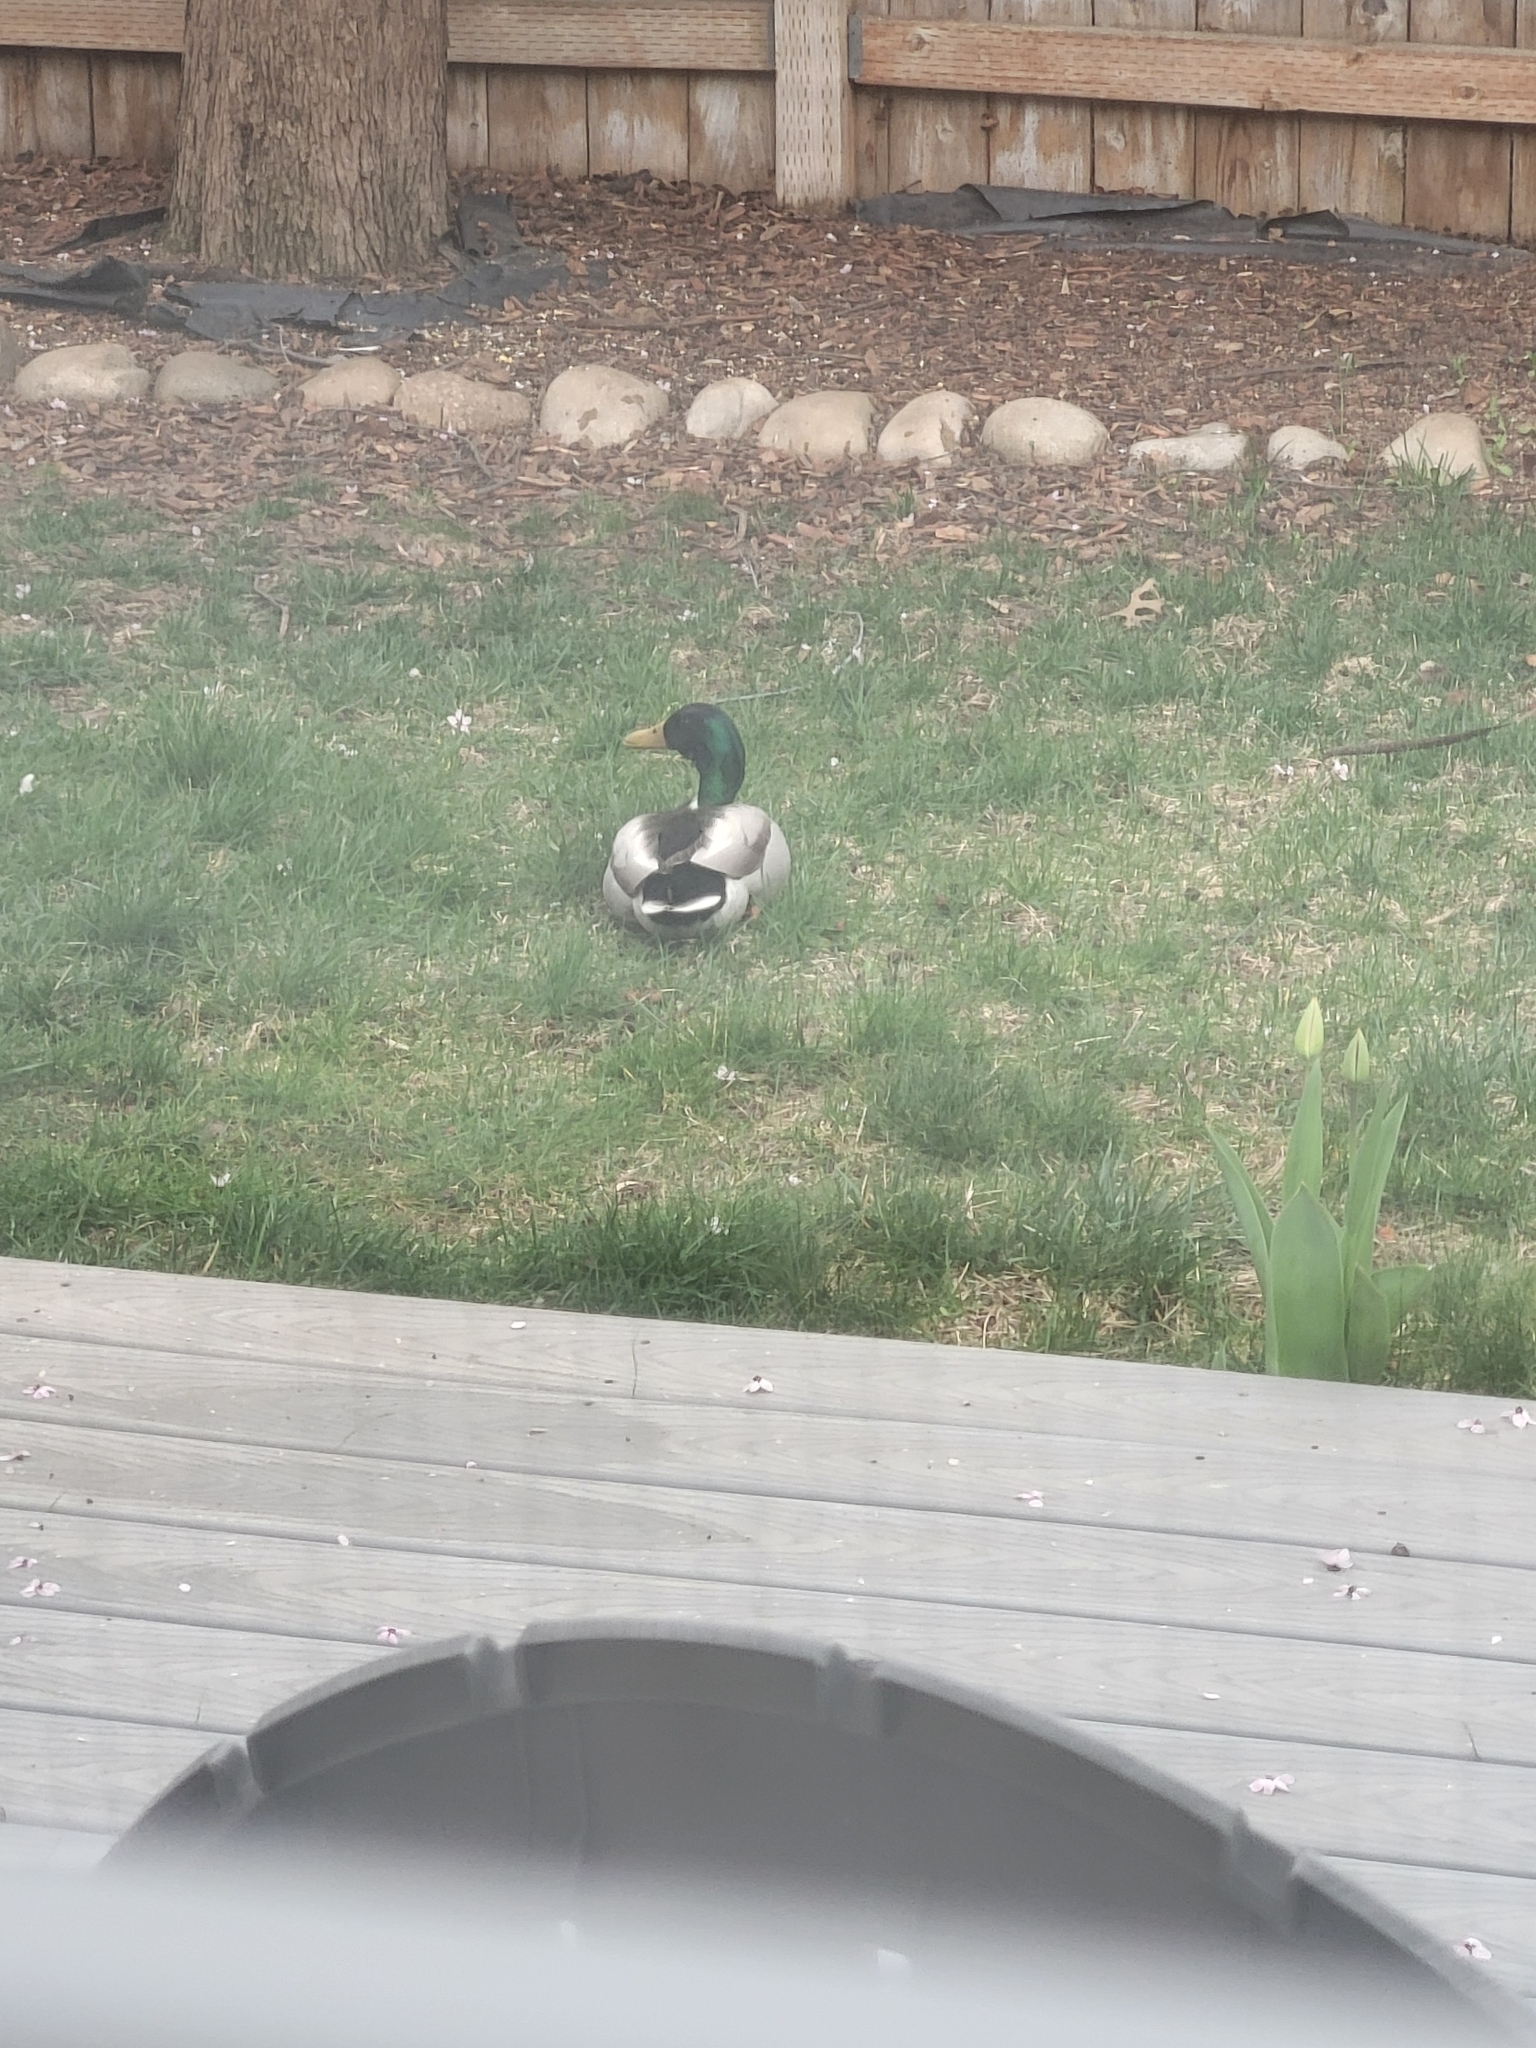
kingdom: Animalia
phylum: Chordata
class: Aves
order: Anseriformes
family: Anatidae
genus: Anas
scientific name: Anas platyrhynchos
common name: Mallard
